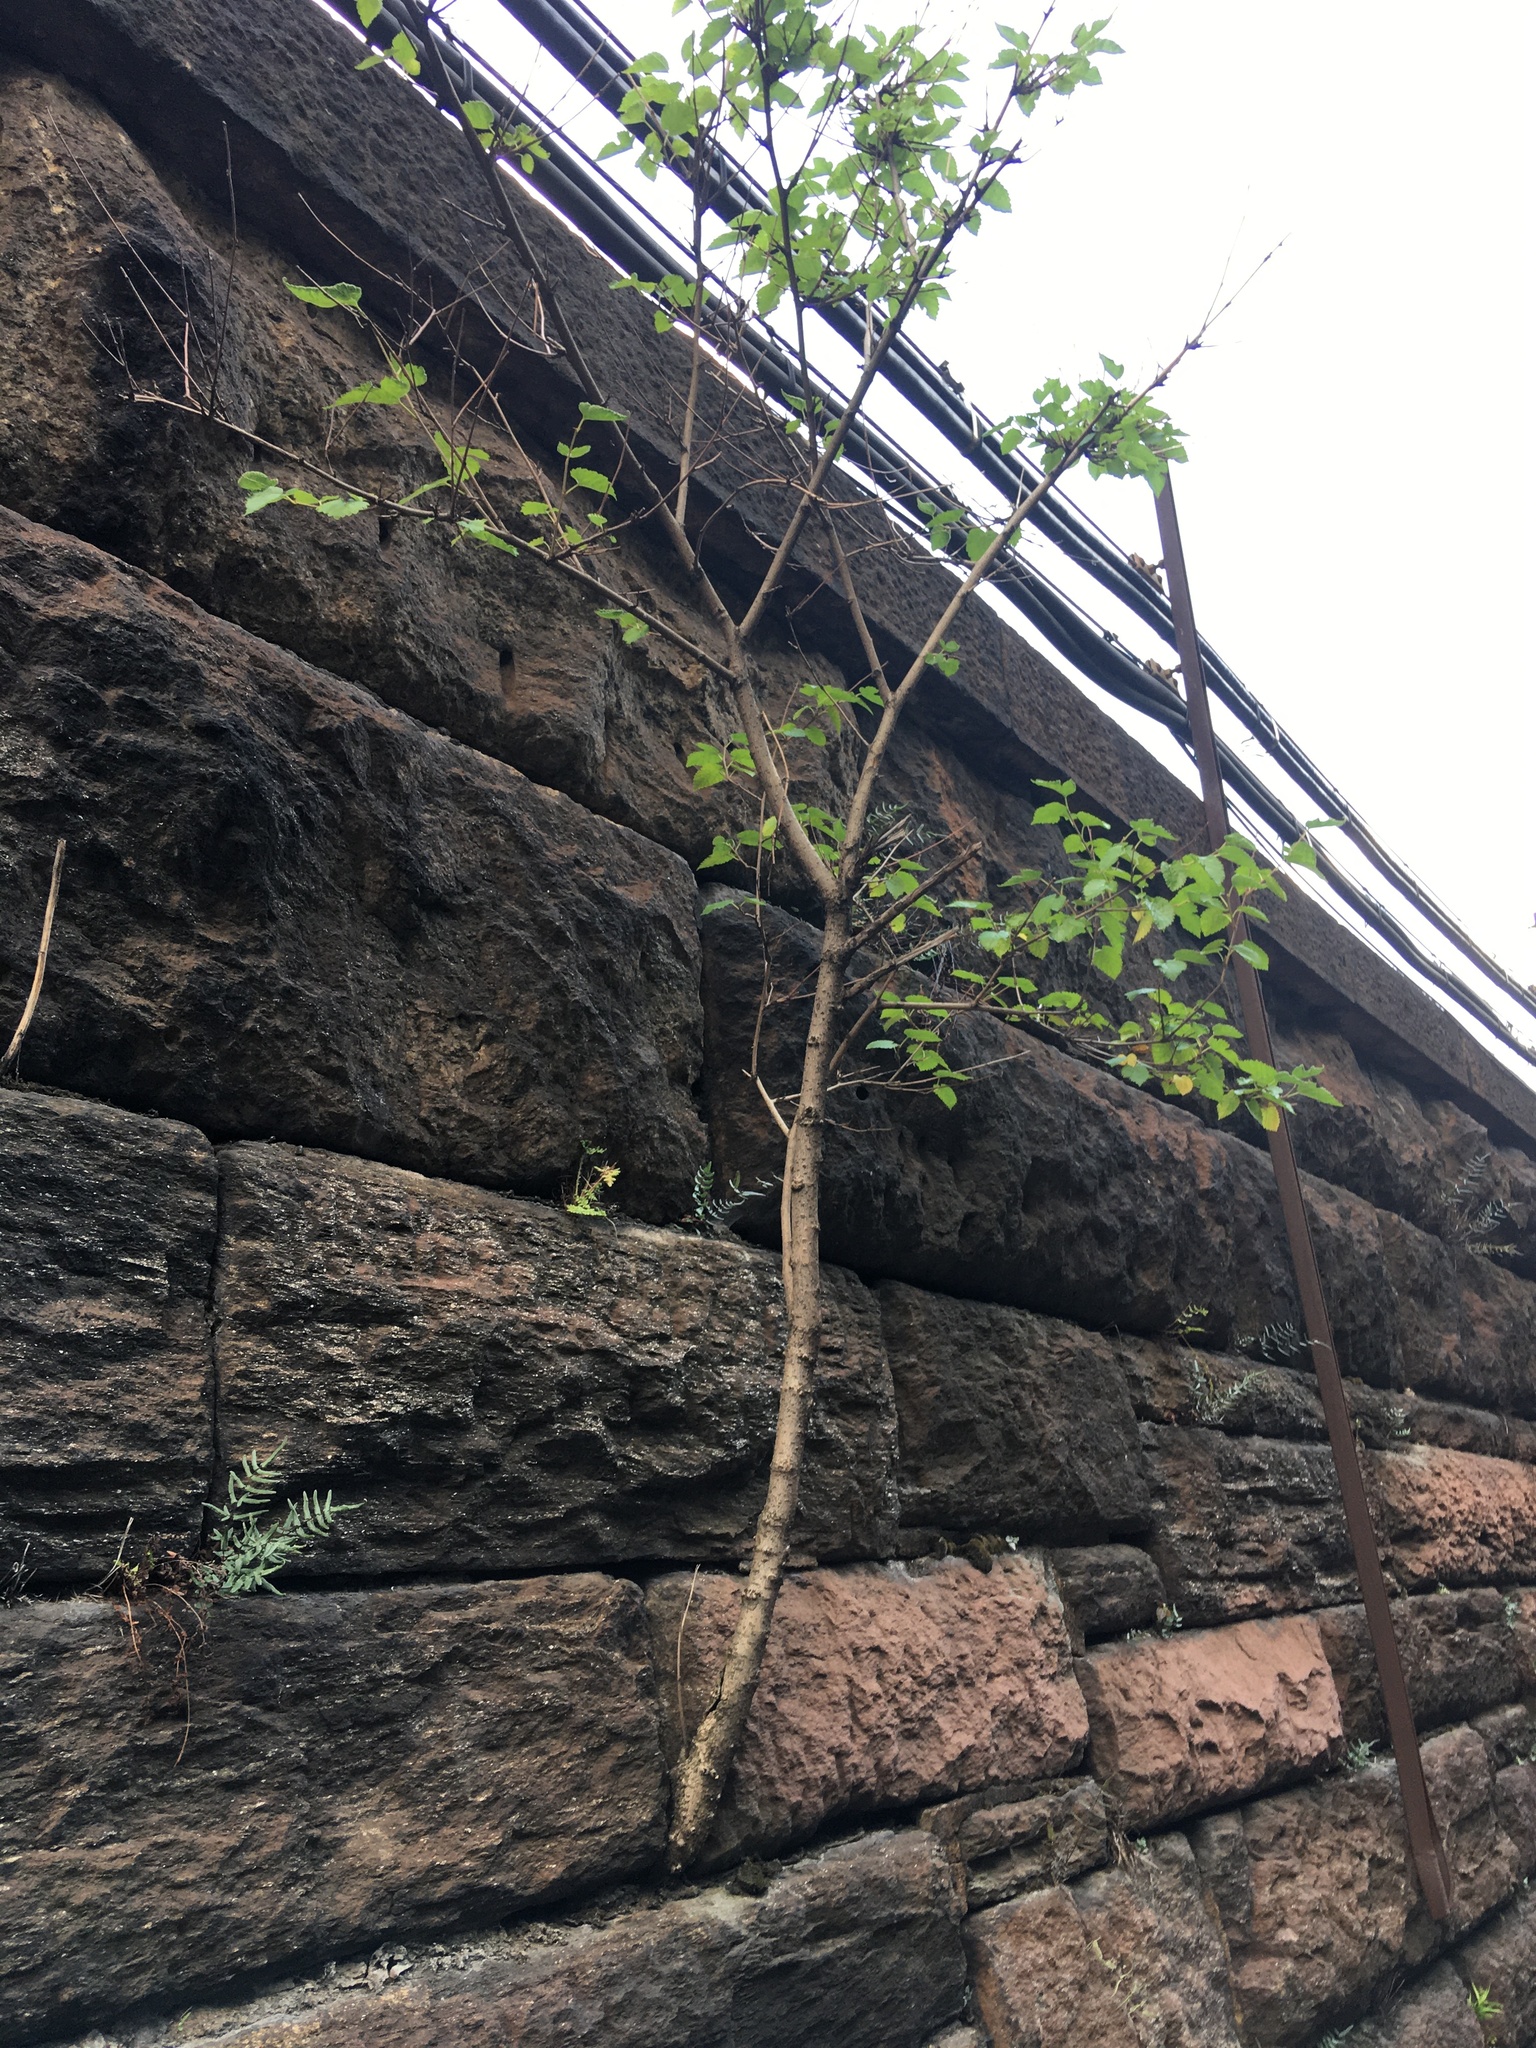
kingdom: Plantae
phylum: Tracheophyta
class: Magnoliopsida
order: Rosales
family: Moraceae
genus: Morus
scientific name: Morus alba
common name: White mulberry
